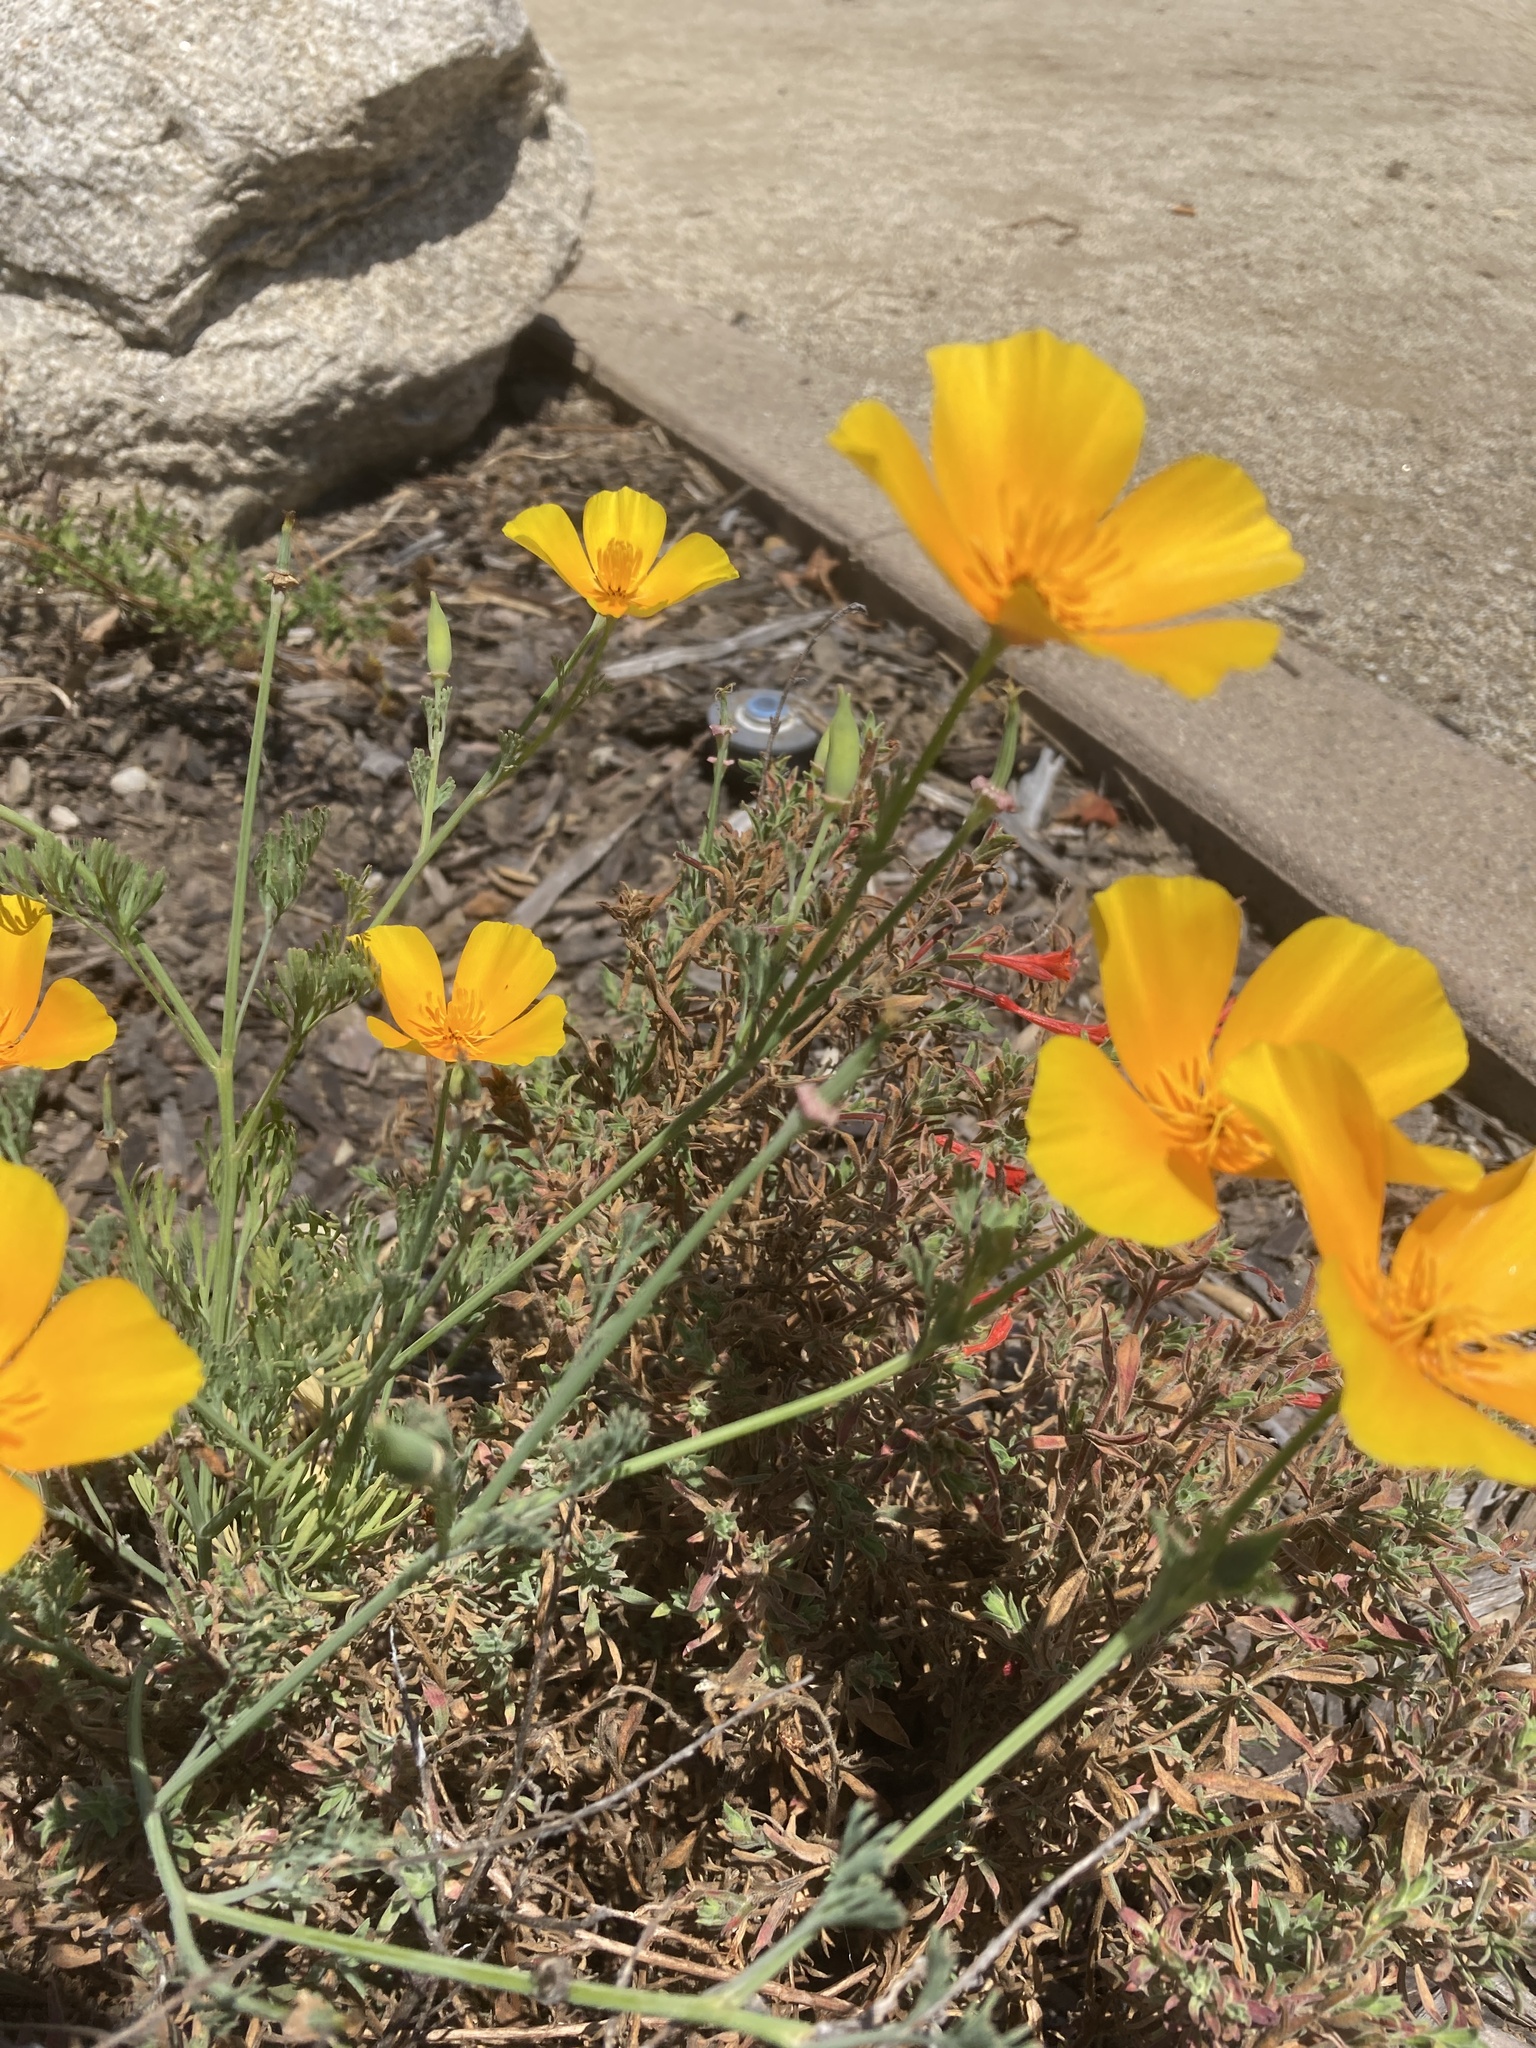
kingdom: Plantae
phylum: Tracheophyta
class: Magnoliopsida
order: Ranunculales
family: Papaveraceae
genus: Eschscholzia
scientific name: Eschscholzia californica
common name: California poppy
